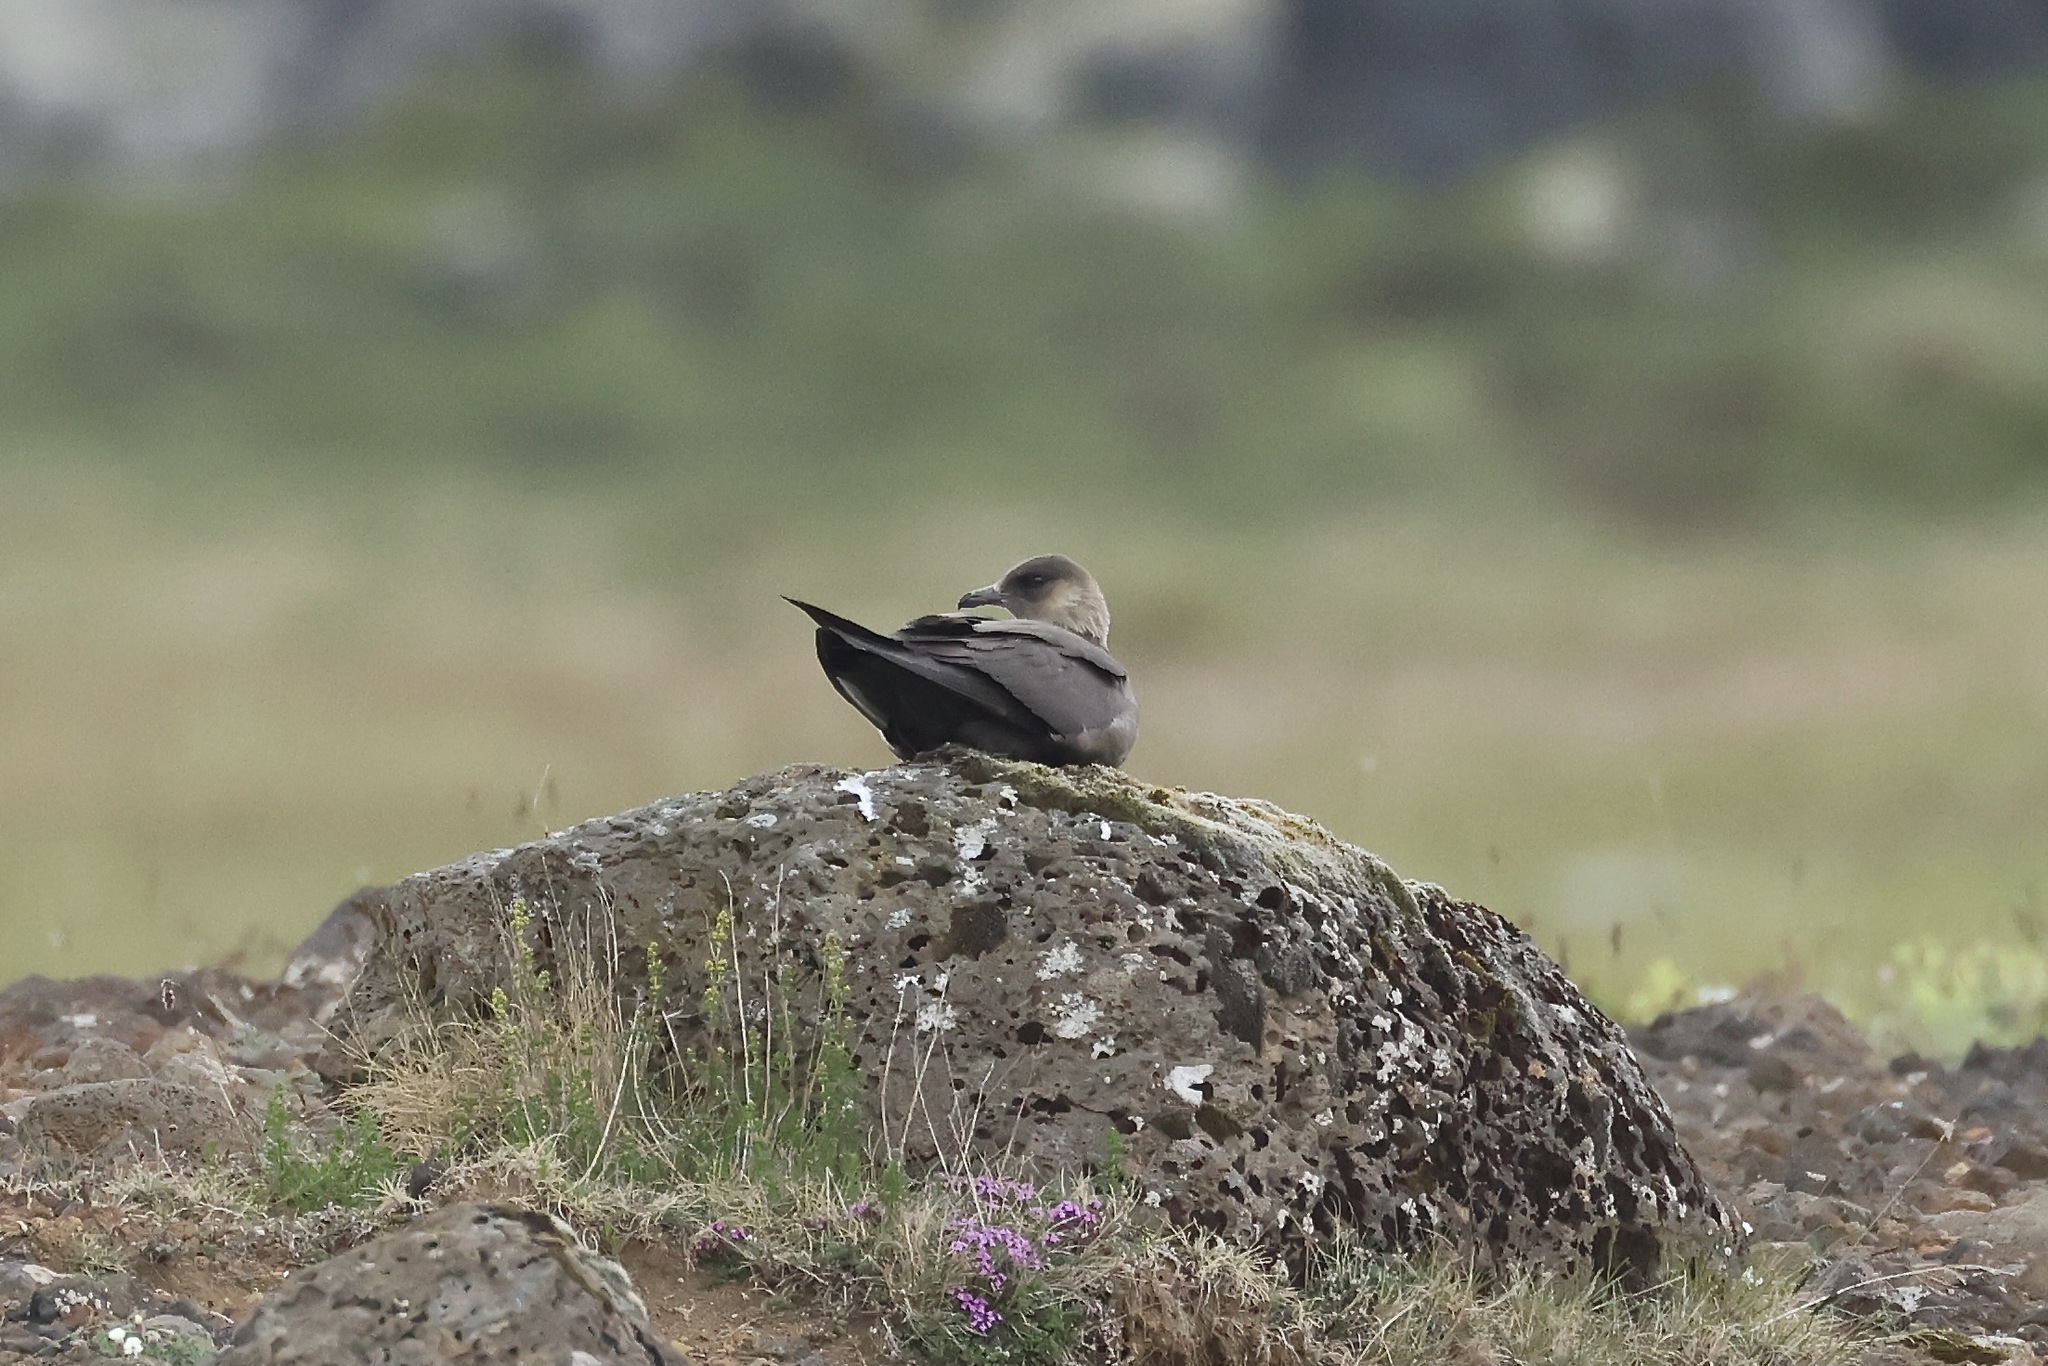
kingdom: Animalia
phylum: Chordata
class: Aves
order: Charadriiformes
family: Stercorariidae
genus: Stercorarius
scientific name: Stercorarius parasiticus
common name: Parasitic jaeger
